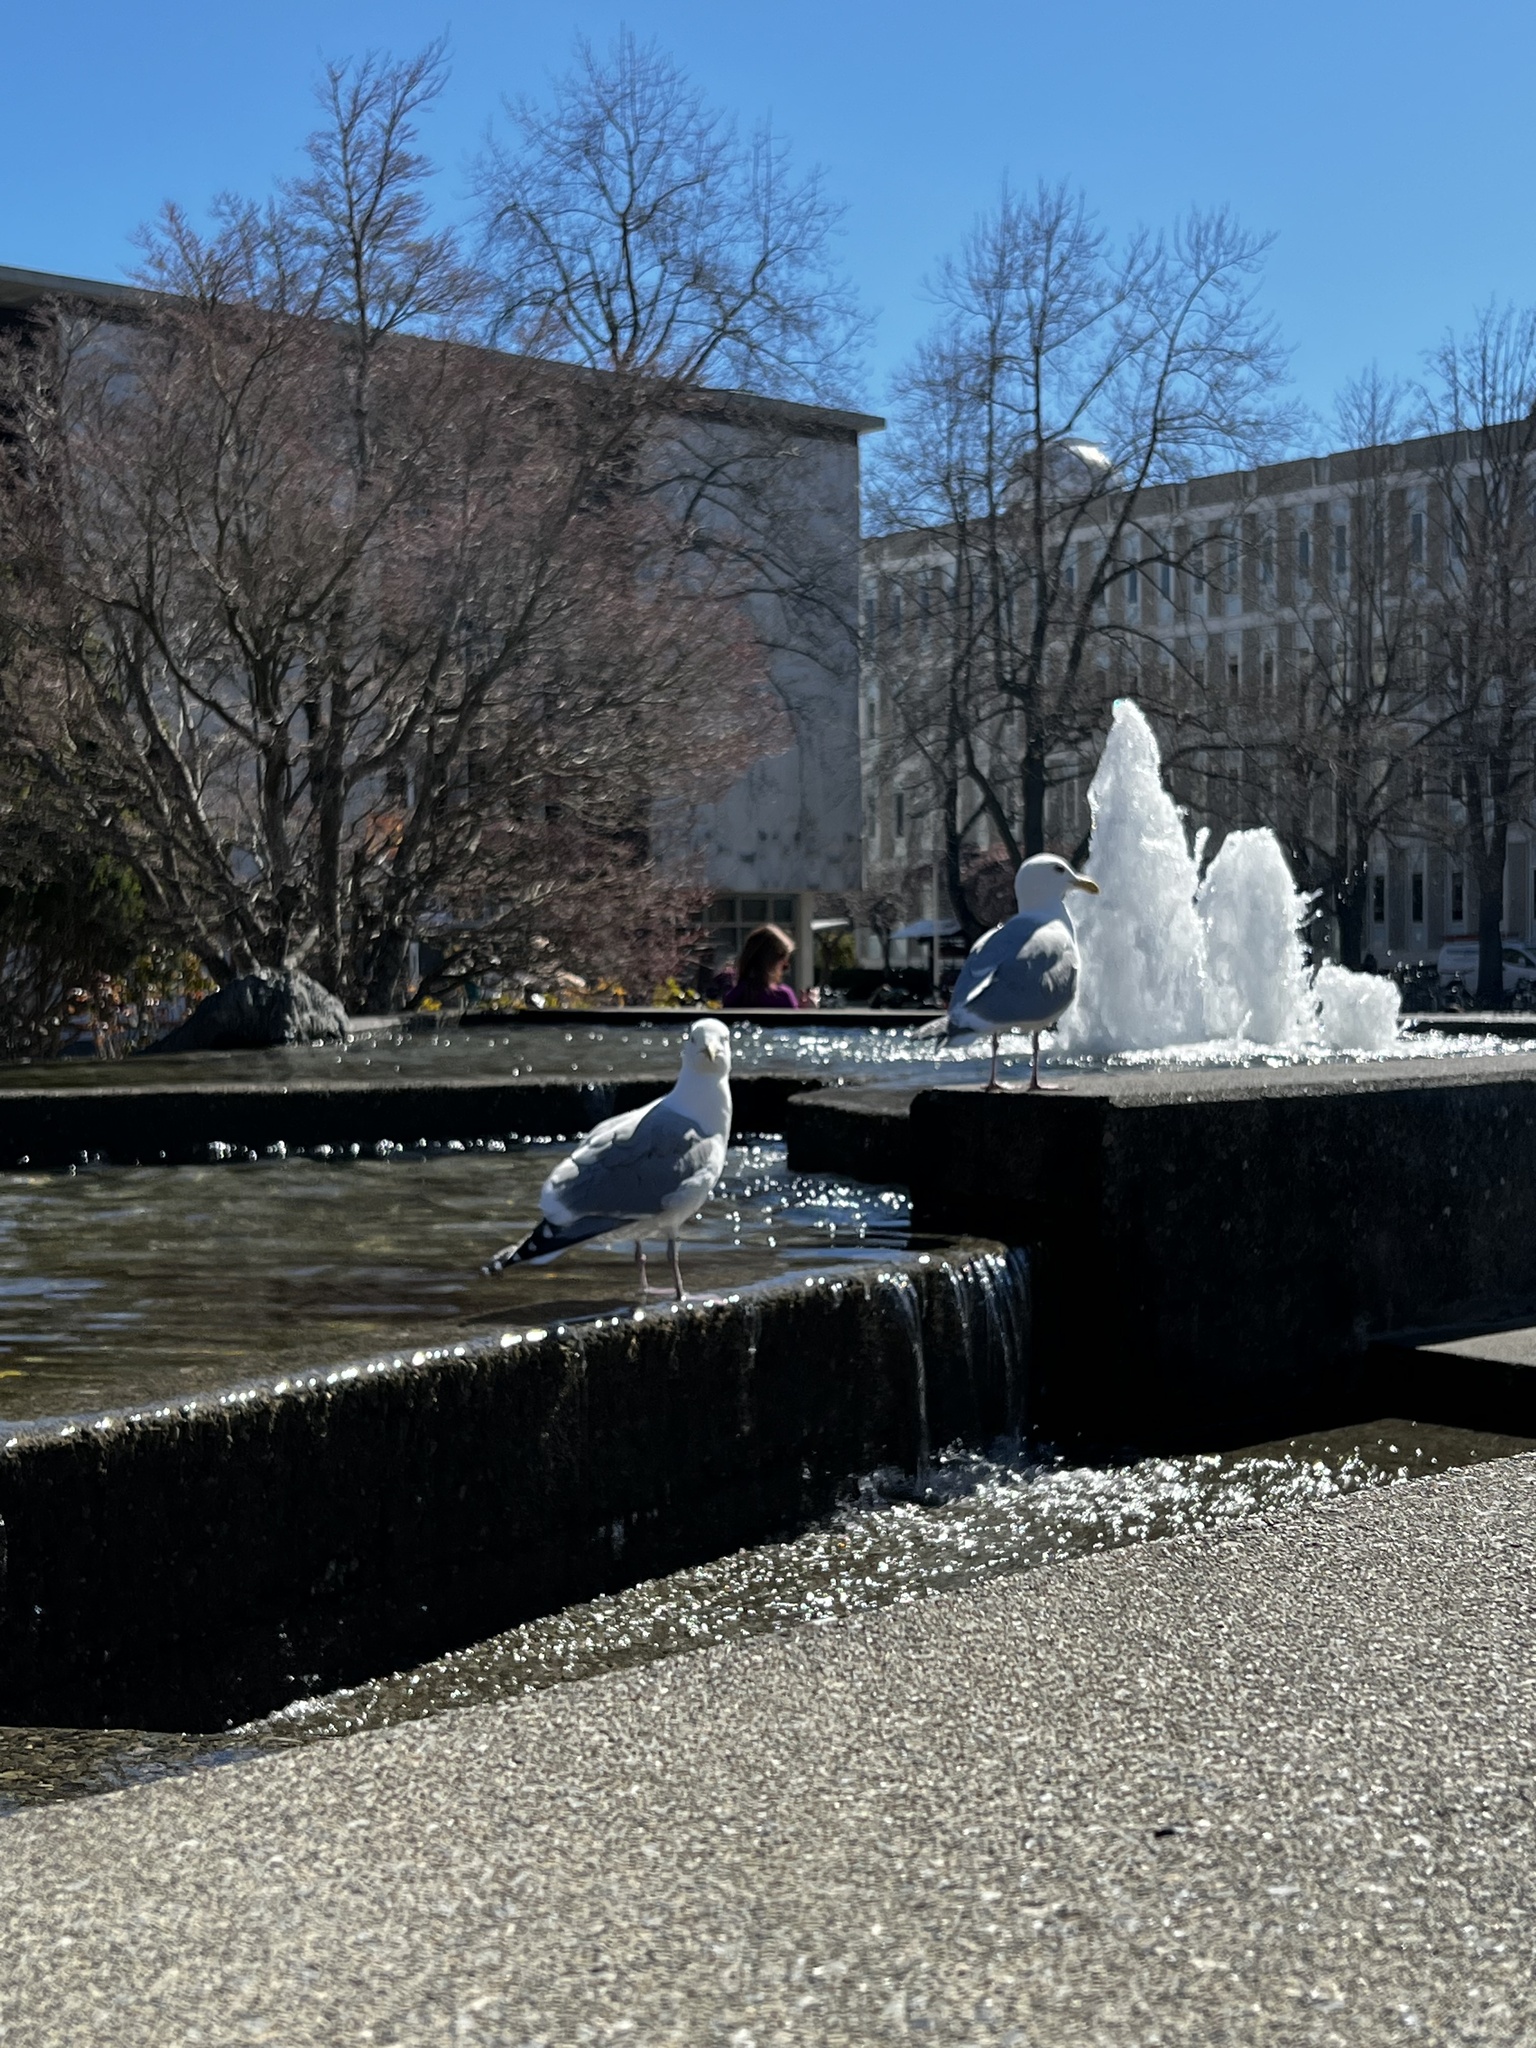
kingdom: Animalia
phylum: Chordata
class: Aves
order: Charadriiformes
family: Laridae
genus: Larus
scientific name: Larus
